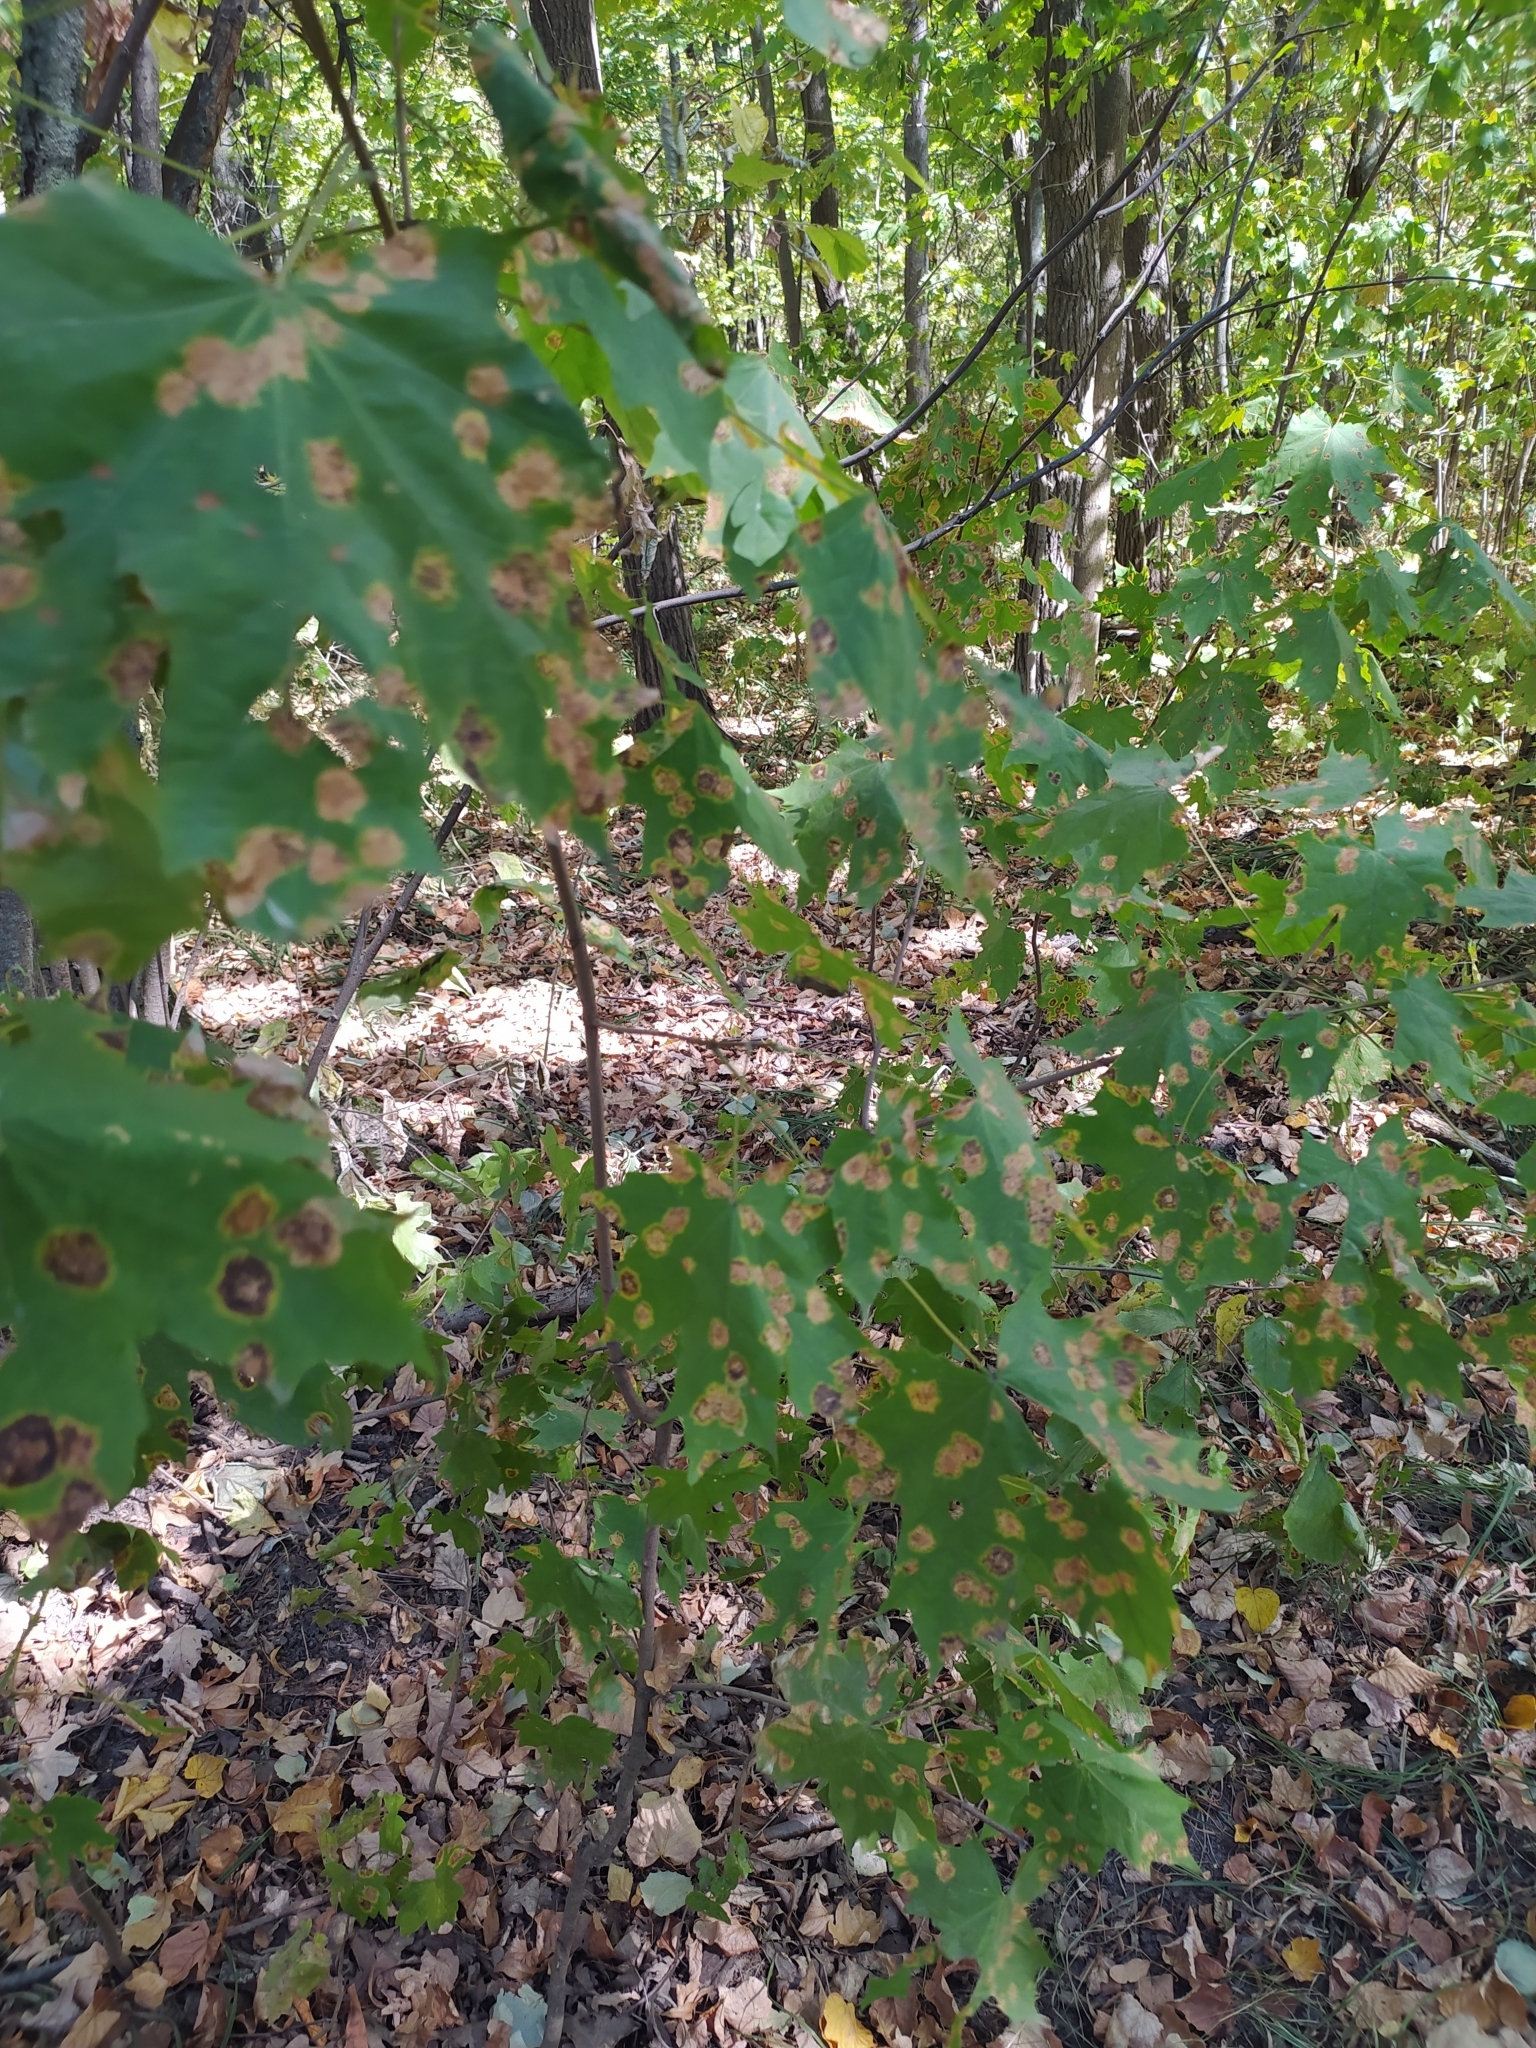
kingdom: Fungi
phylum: Ascomycota
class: Leotiomycetes
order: Rhytismatales
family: Rhytismataceae
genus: Rhytisma
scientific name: Rhytisma acerinum
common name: European tar spot
